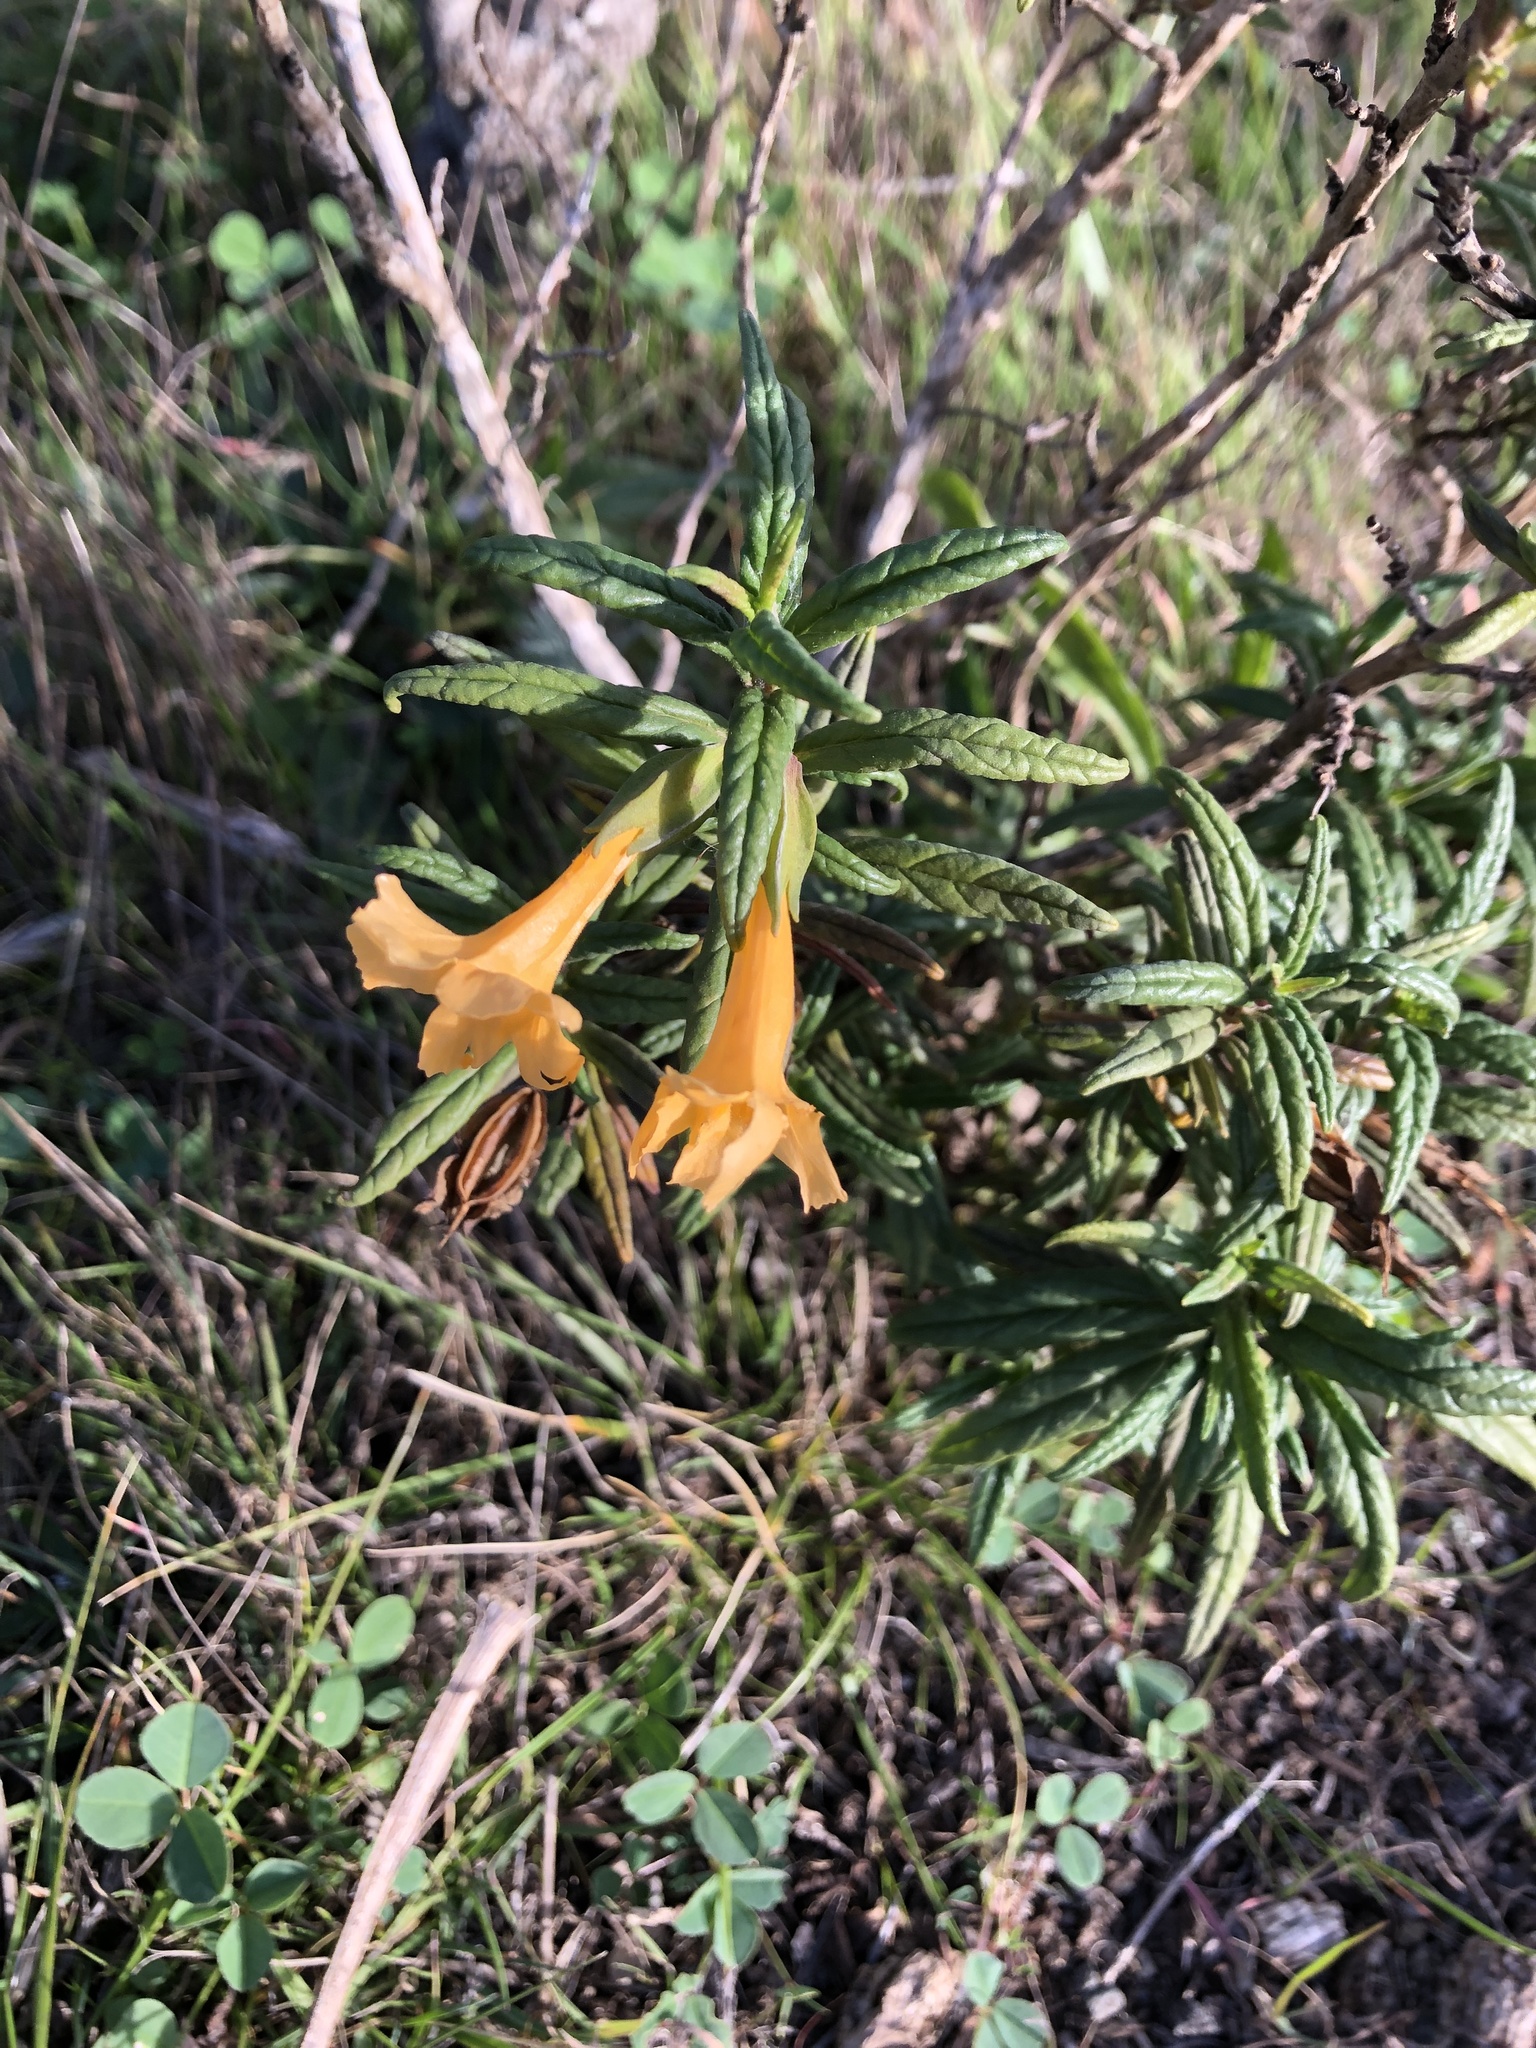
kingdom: Plantae
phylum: Tracheophyta
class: Magnoliopsida
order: Lamiales
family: Phrymaceae
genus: Diplacus
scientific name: Diplacus aurantiacus
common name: Bush monkey-flower
